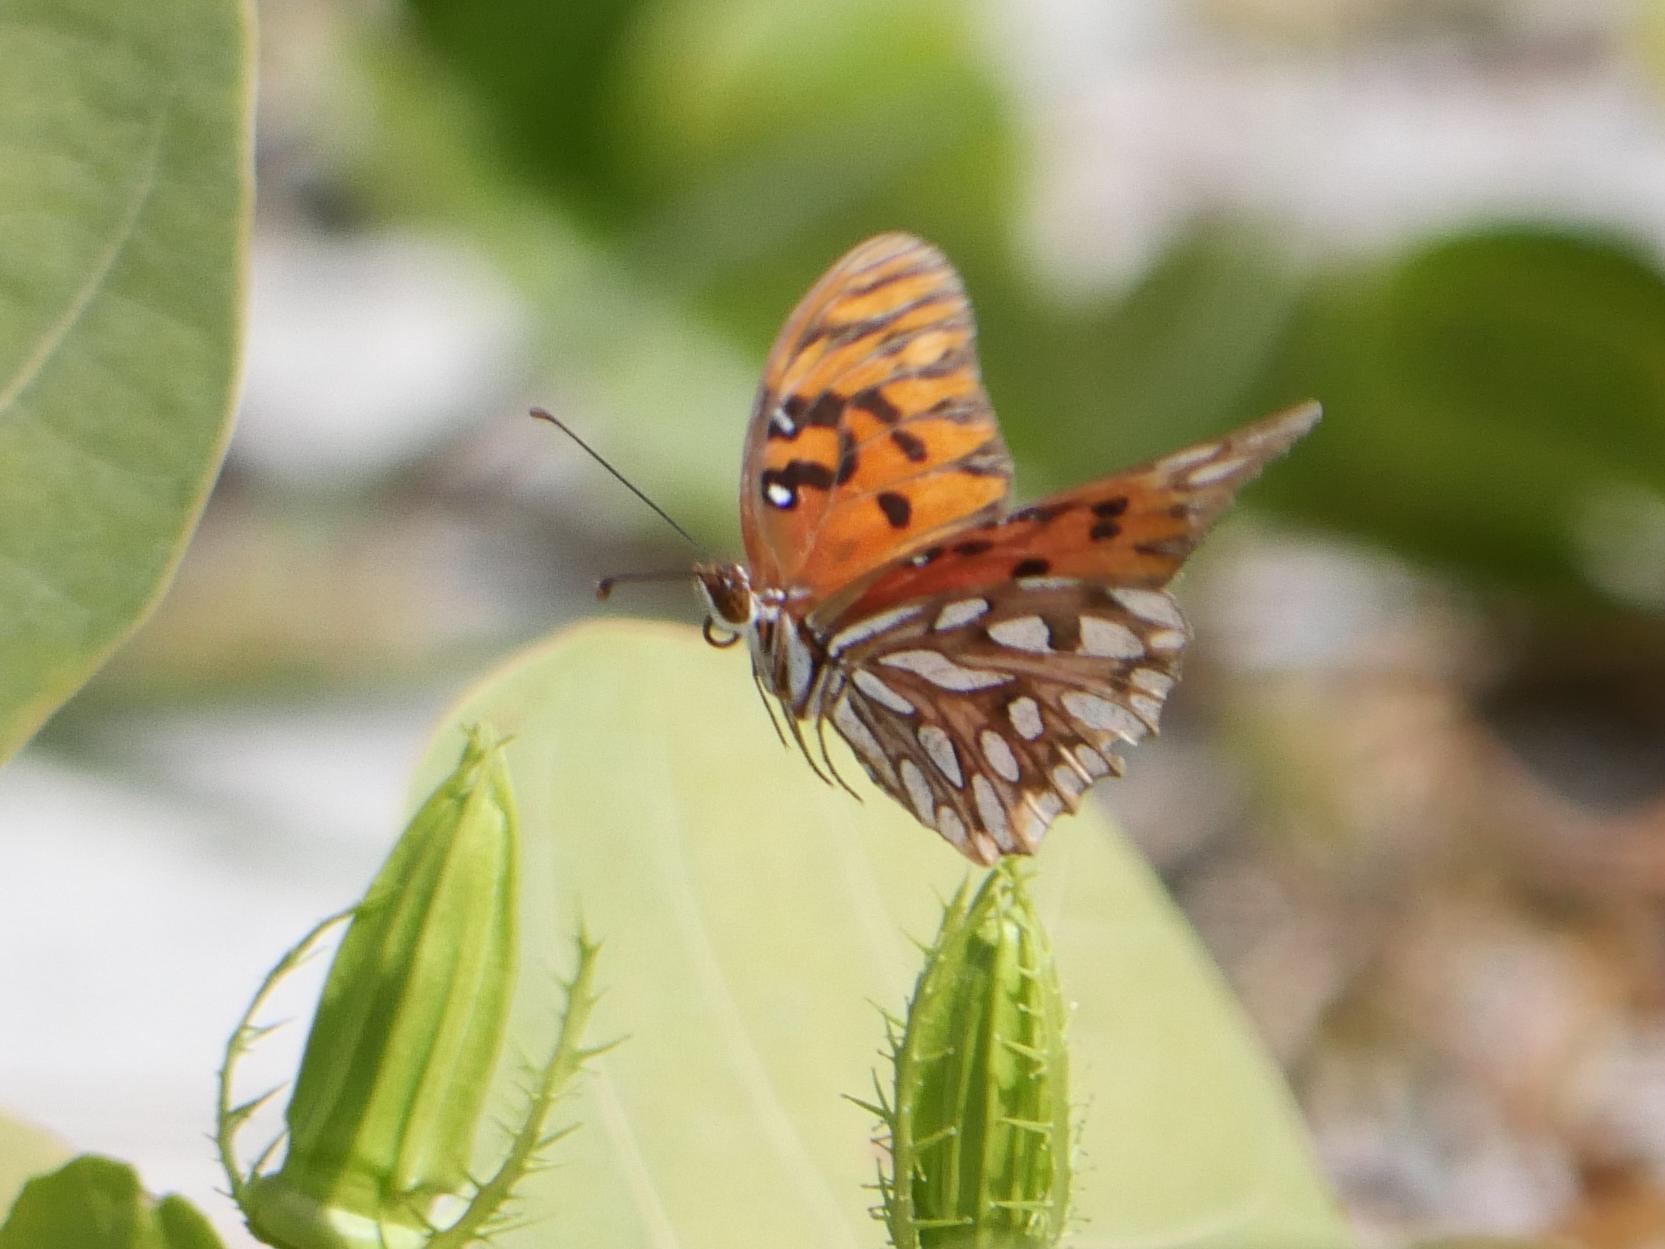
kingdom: Animalia
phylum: Arthropoda
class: Insecta
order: Lepidoptera
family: Nymphalidae
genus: Dione
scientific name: Dione vanillae
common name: Gulf fritillary
